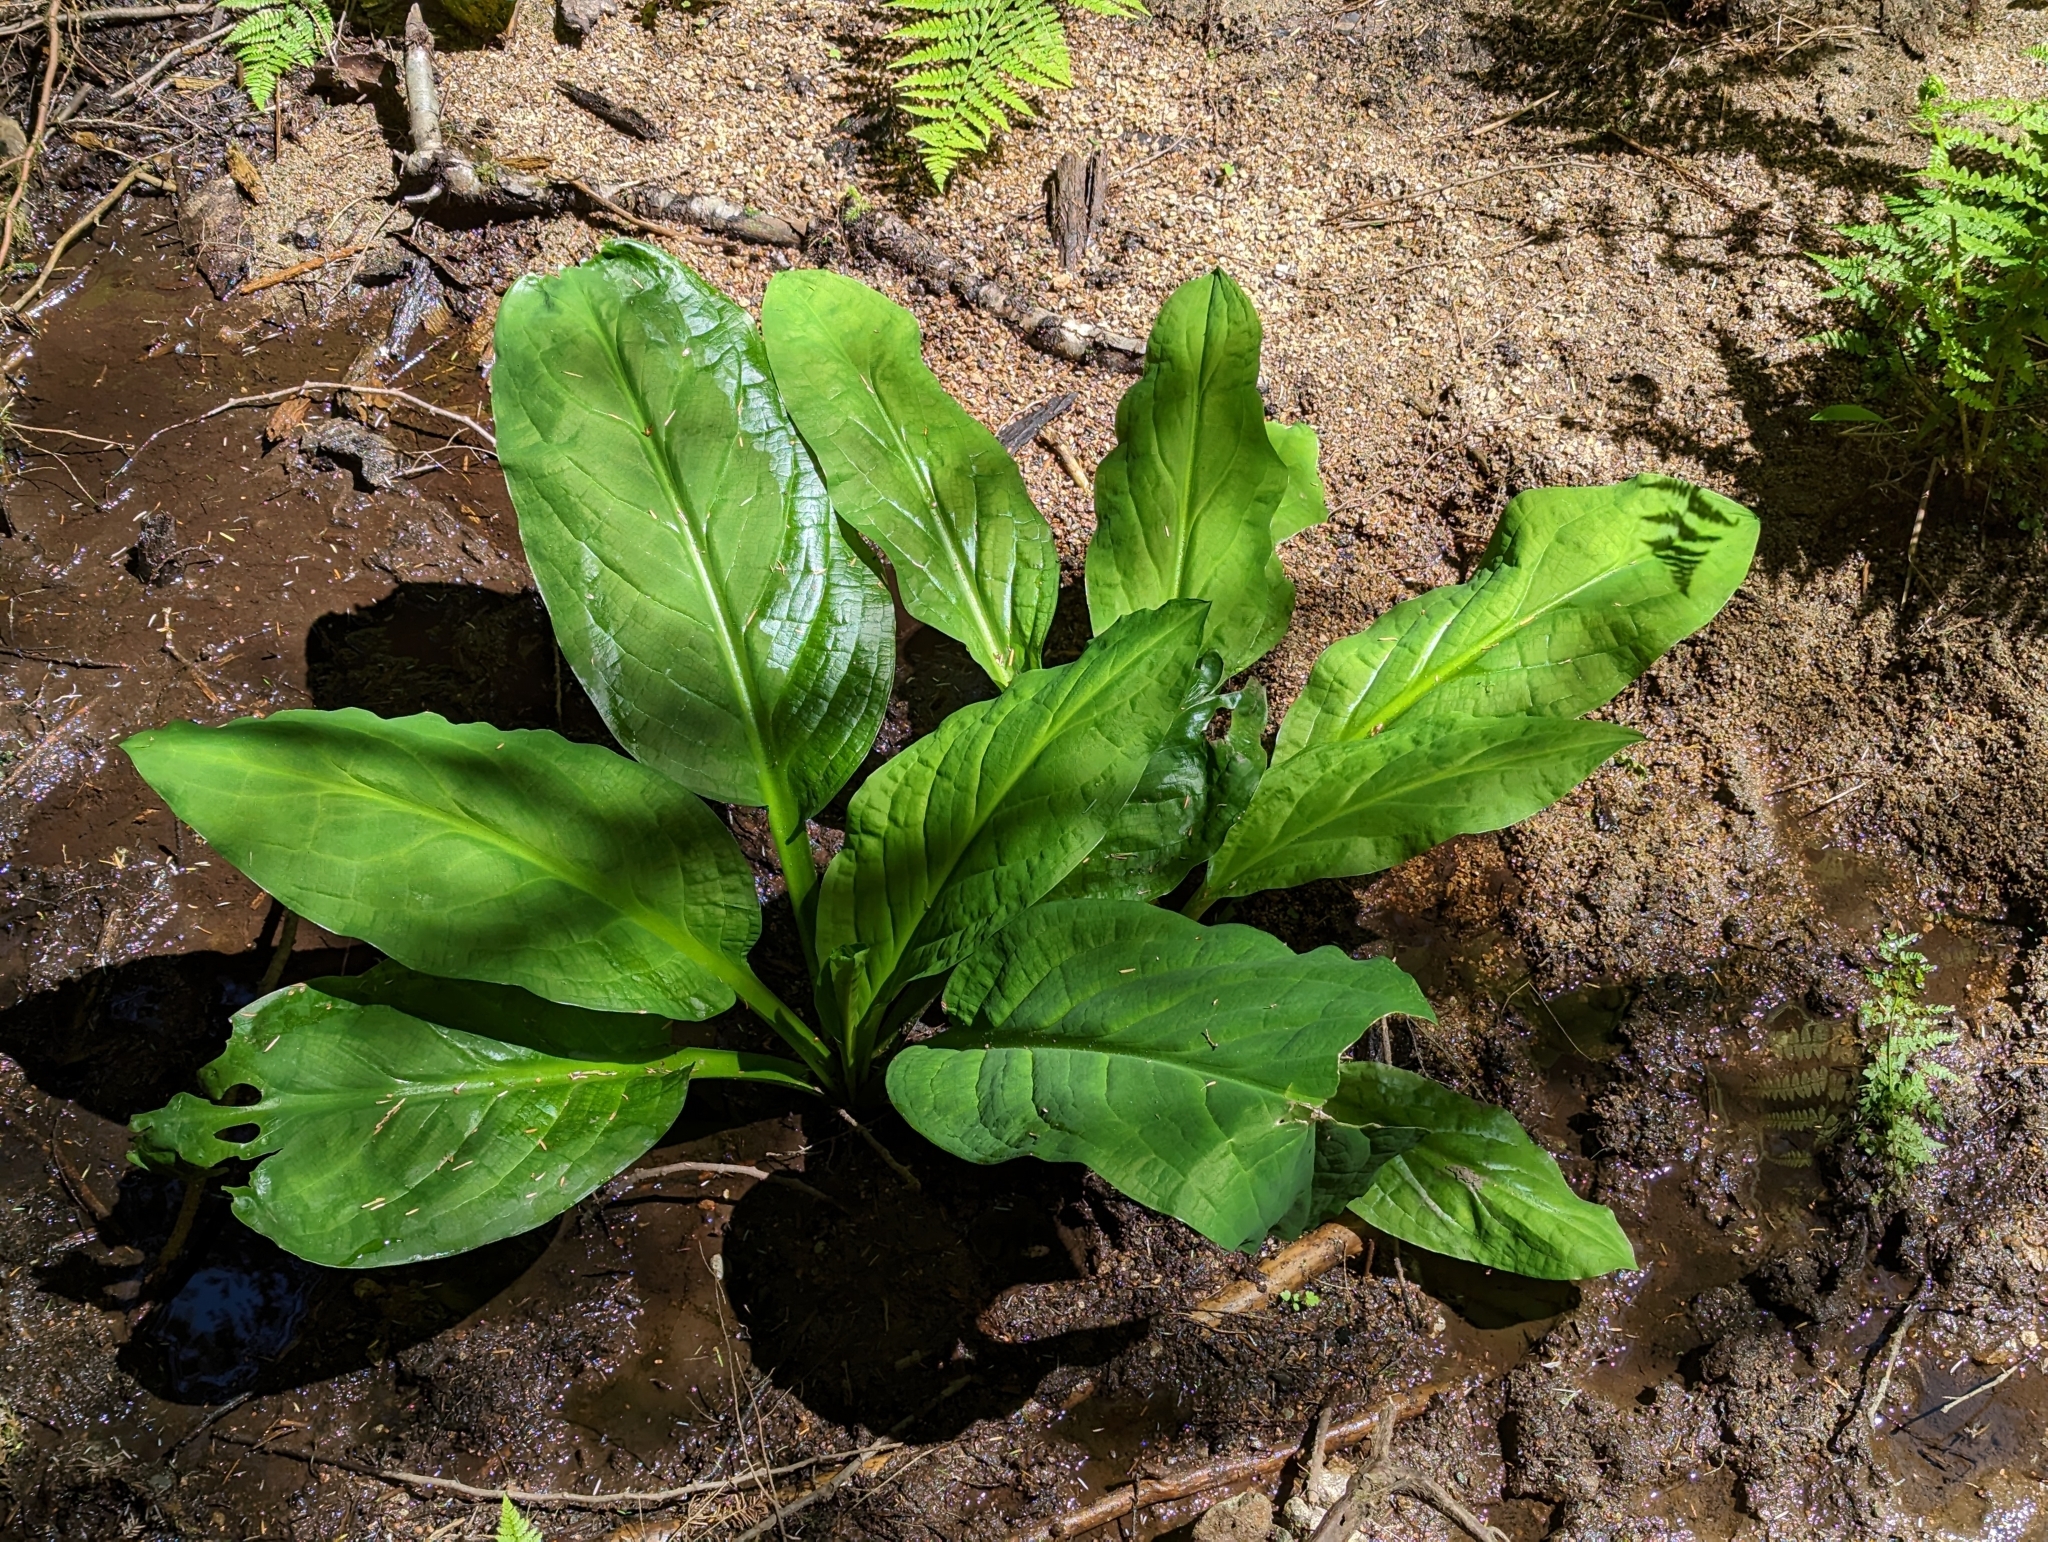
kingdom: Plantae
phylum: Tracheophyta
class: Liliopsida
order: Alismatales
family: Araceae
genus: Lysichiton
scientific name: Lysichiton americanus
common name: American skunk cabbage
